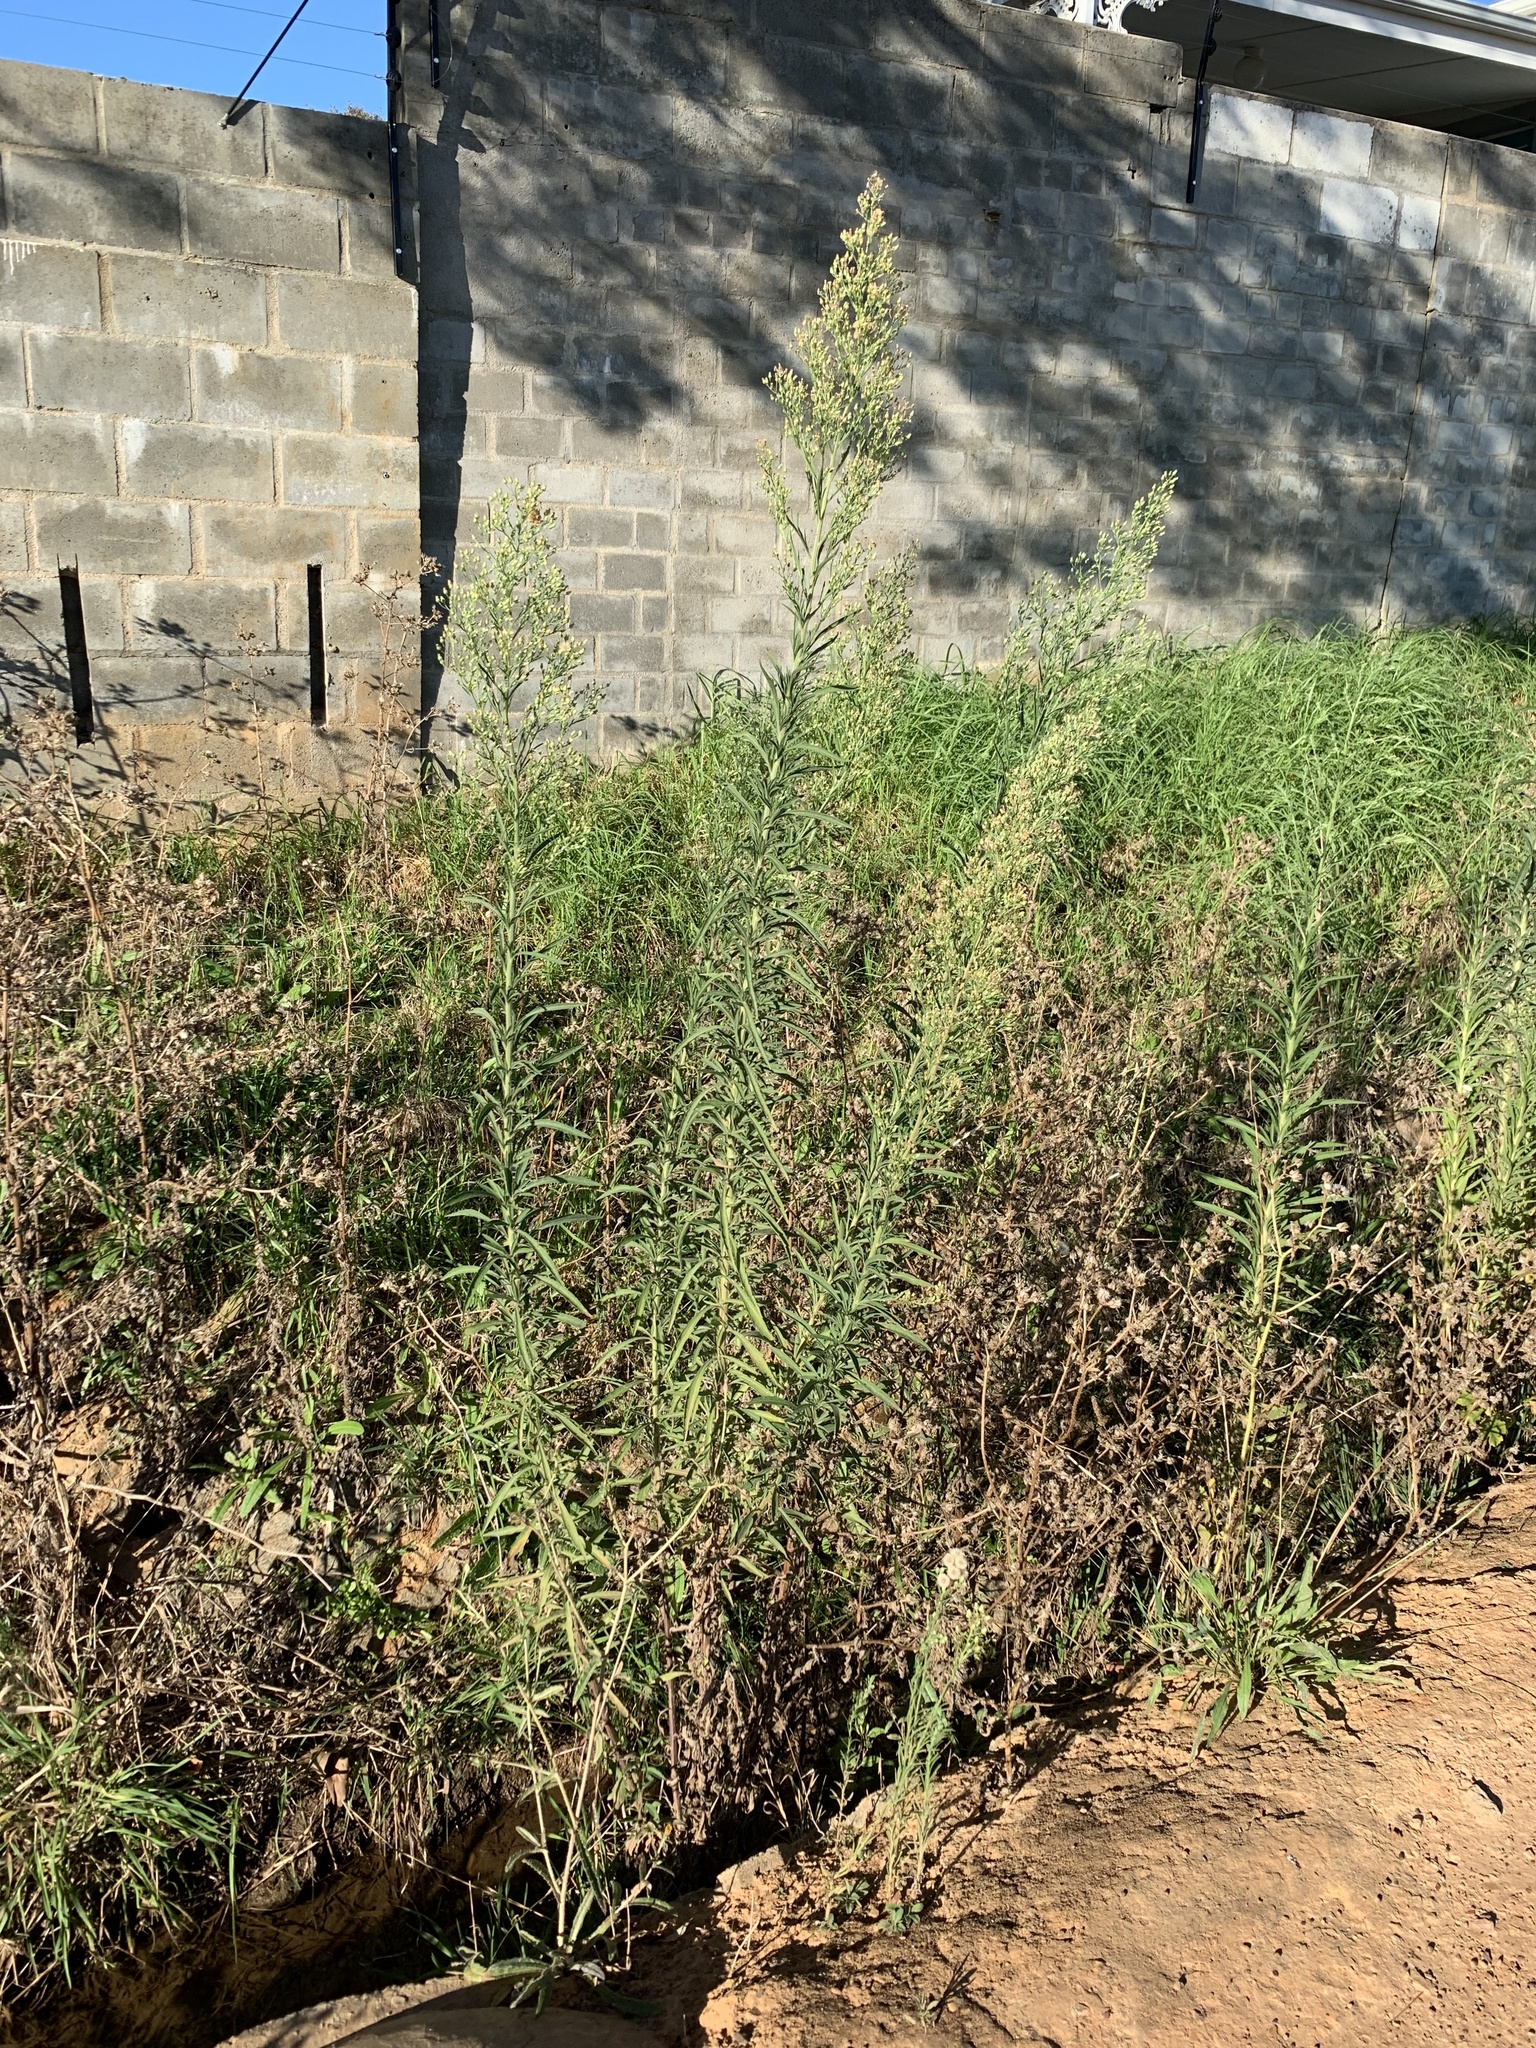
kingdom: Plantae
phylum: Tracheophyta
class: Magnoliopsida
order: Asterales
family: Asteraceae
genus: Erigeron
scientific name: Erigeron sumatrensis
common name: Daisy
